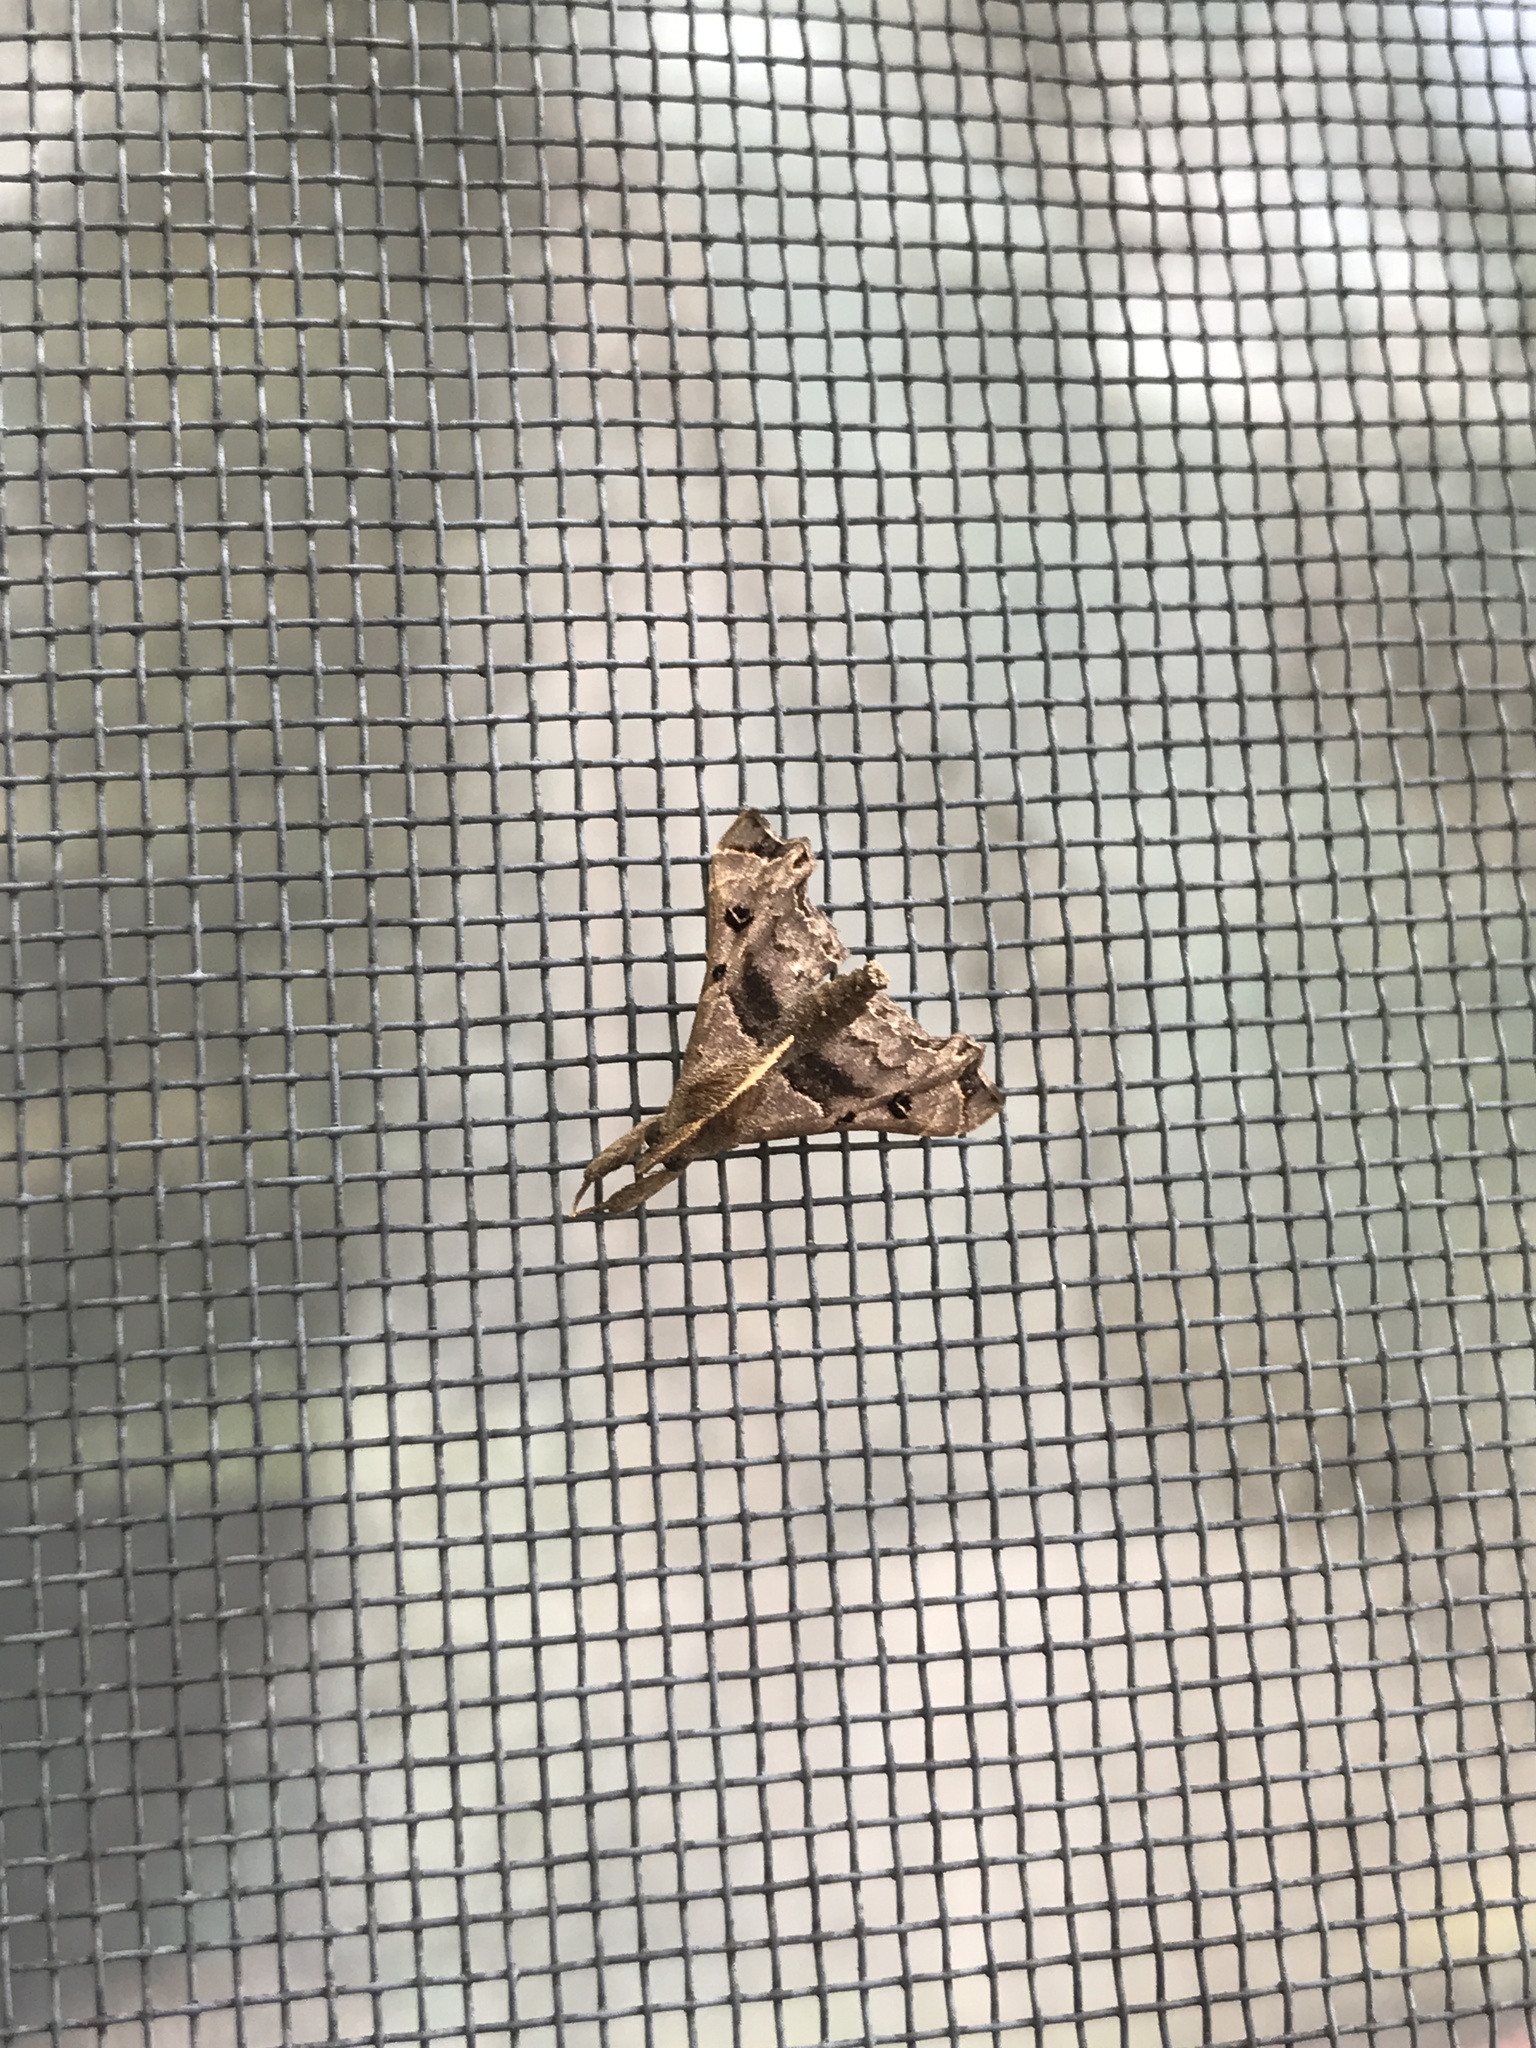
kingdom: Animalia
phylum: Arthropoda
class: Insecta
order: Lepidoptera
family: Erebidae
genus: Palthis
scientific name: Palthis asopialis
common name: Faint-spotted palthis moth
